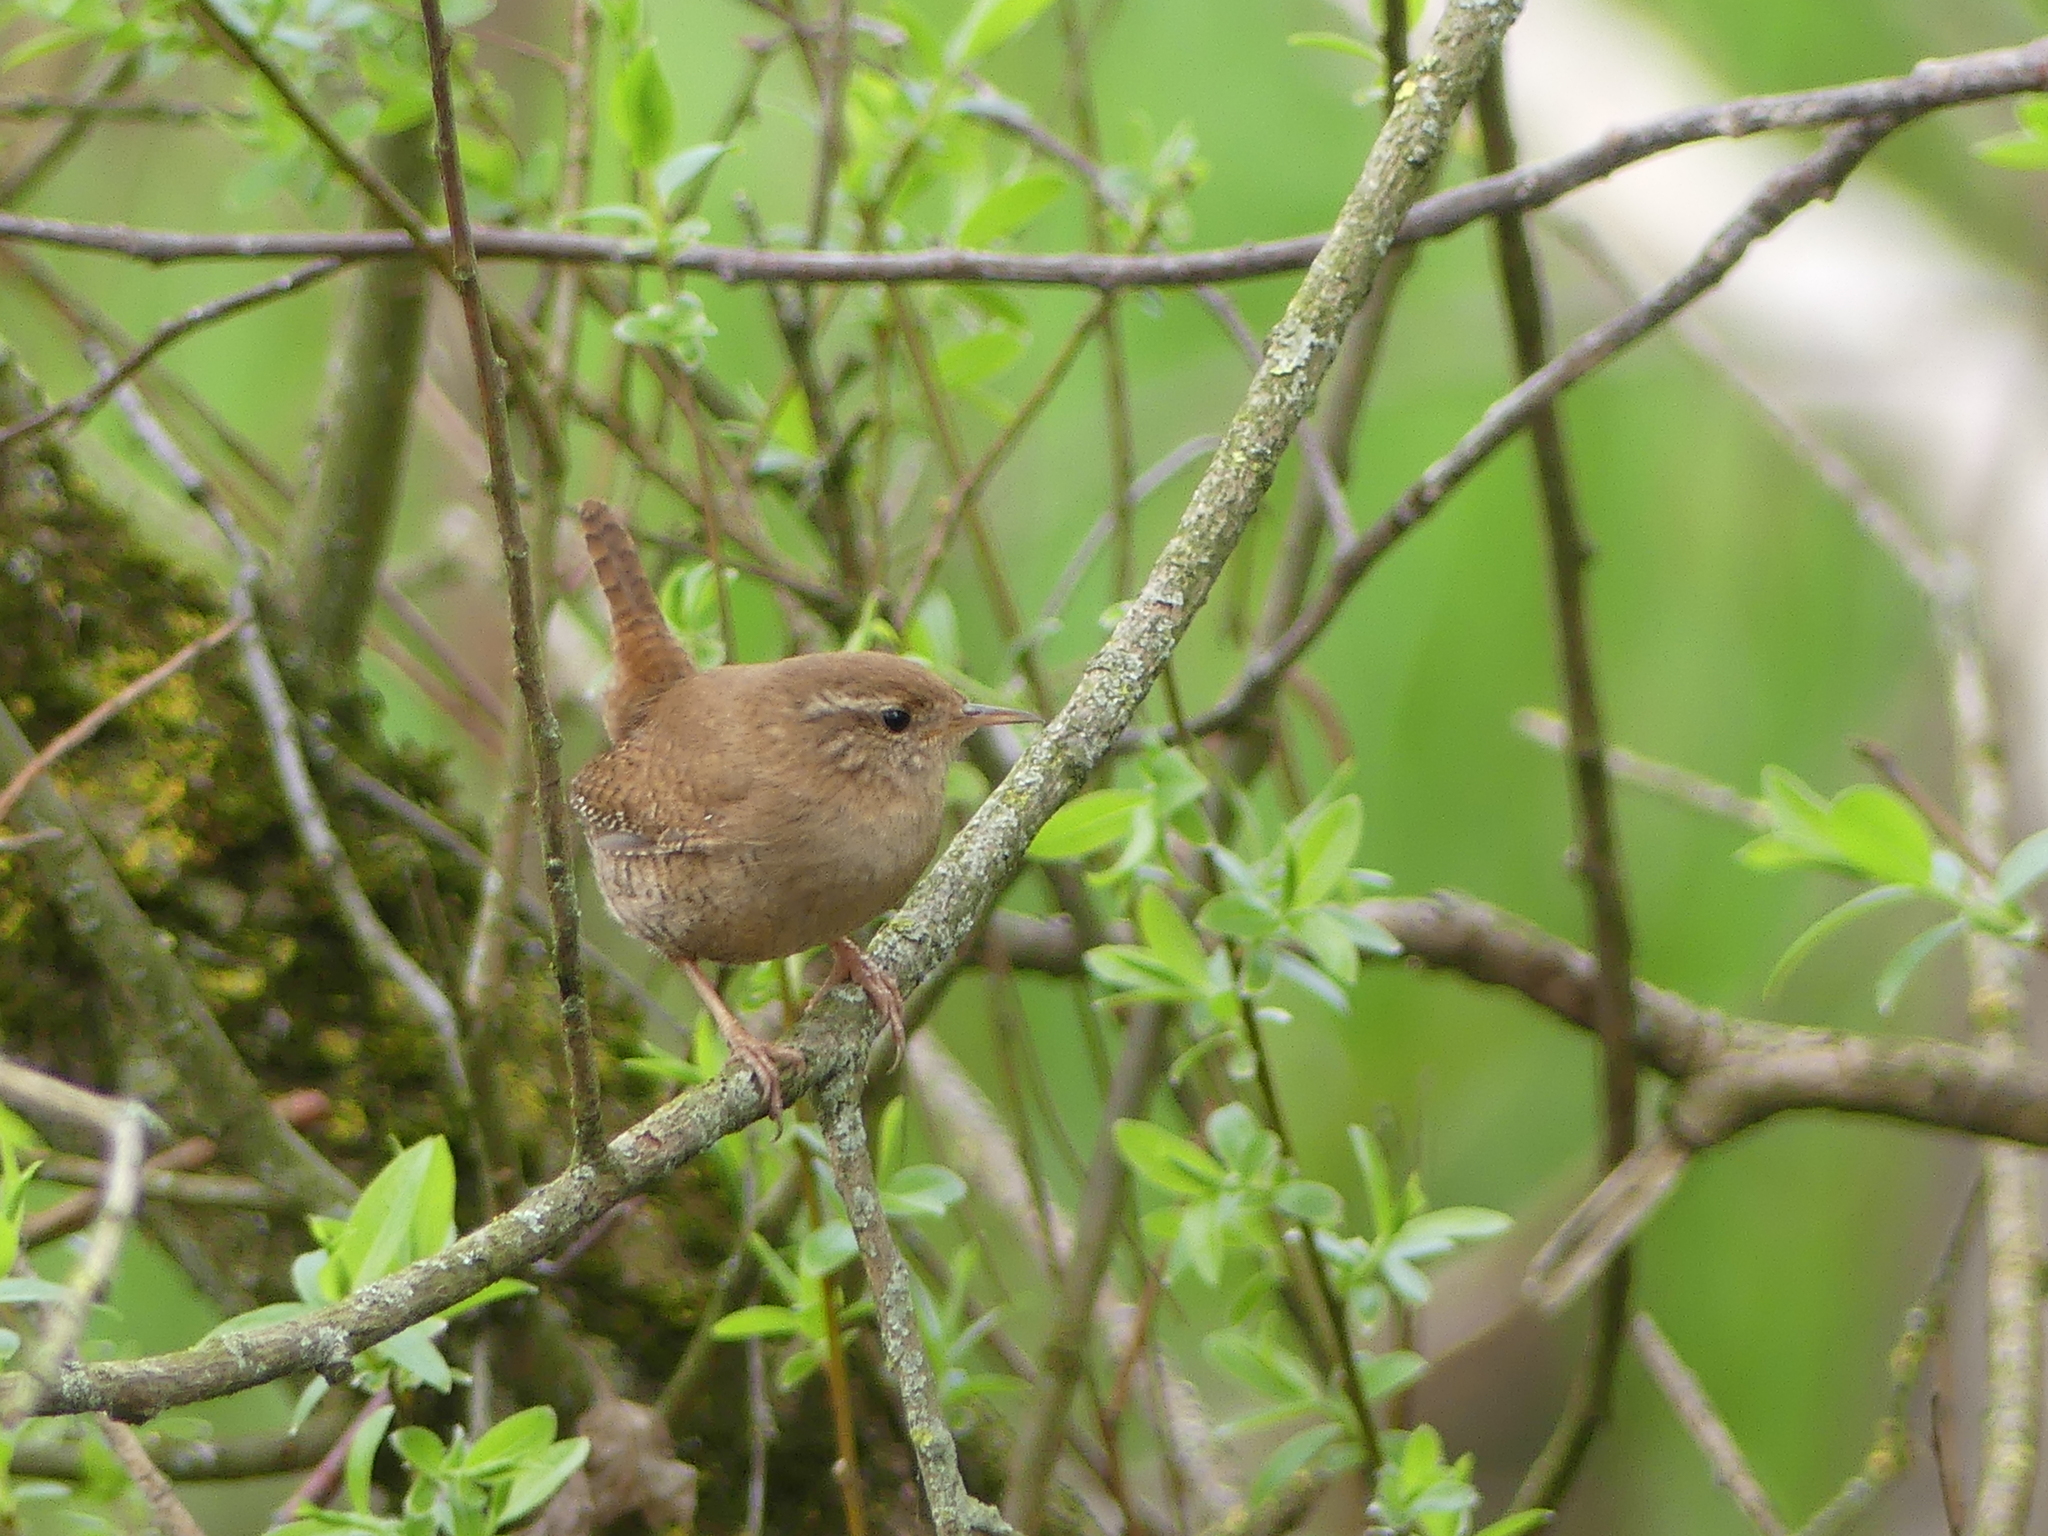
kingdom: Animalia
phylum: Chordata
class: Aves
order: Passeriformes
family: Troglodytidae
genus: Troglodytes
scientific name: Troglodytes troglodytes
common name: Eurasian wren
